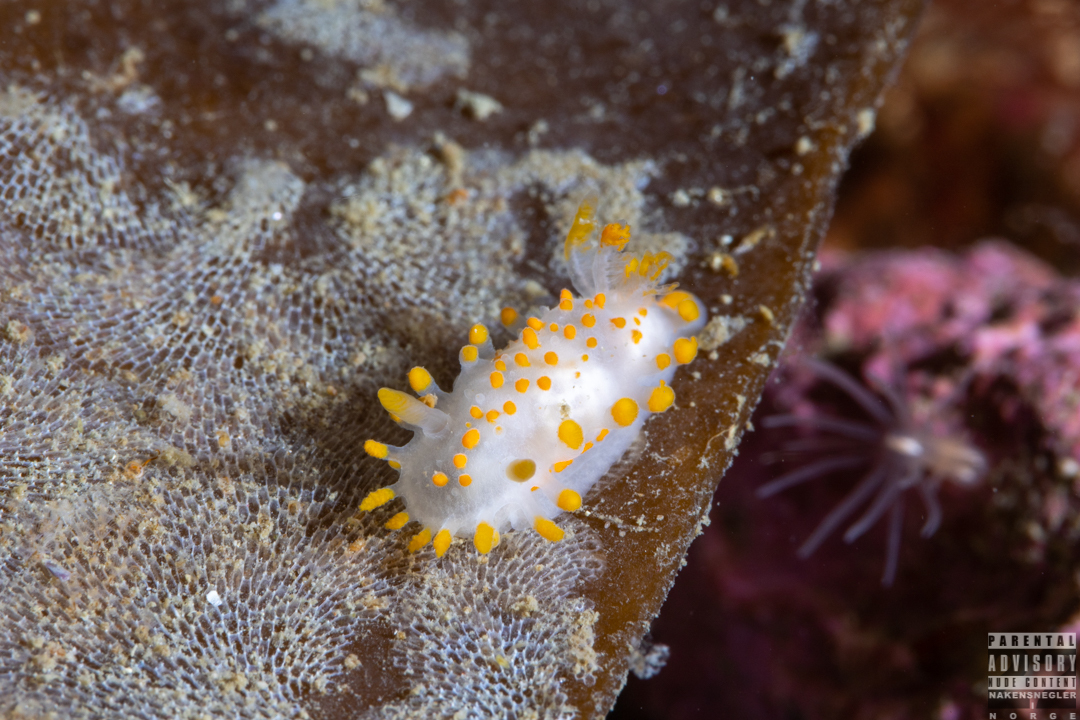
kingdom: Animalia
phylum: Mollusca
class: Gastropoda
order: Nudibranchia
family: Polyceridae
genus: Limacia
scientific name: Limacia clavigera
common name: Orange-clubbed sea slug
